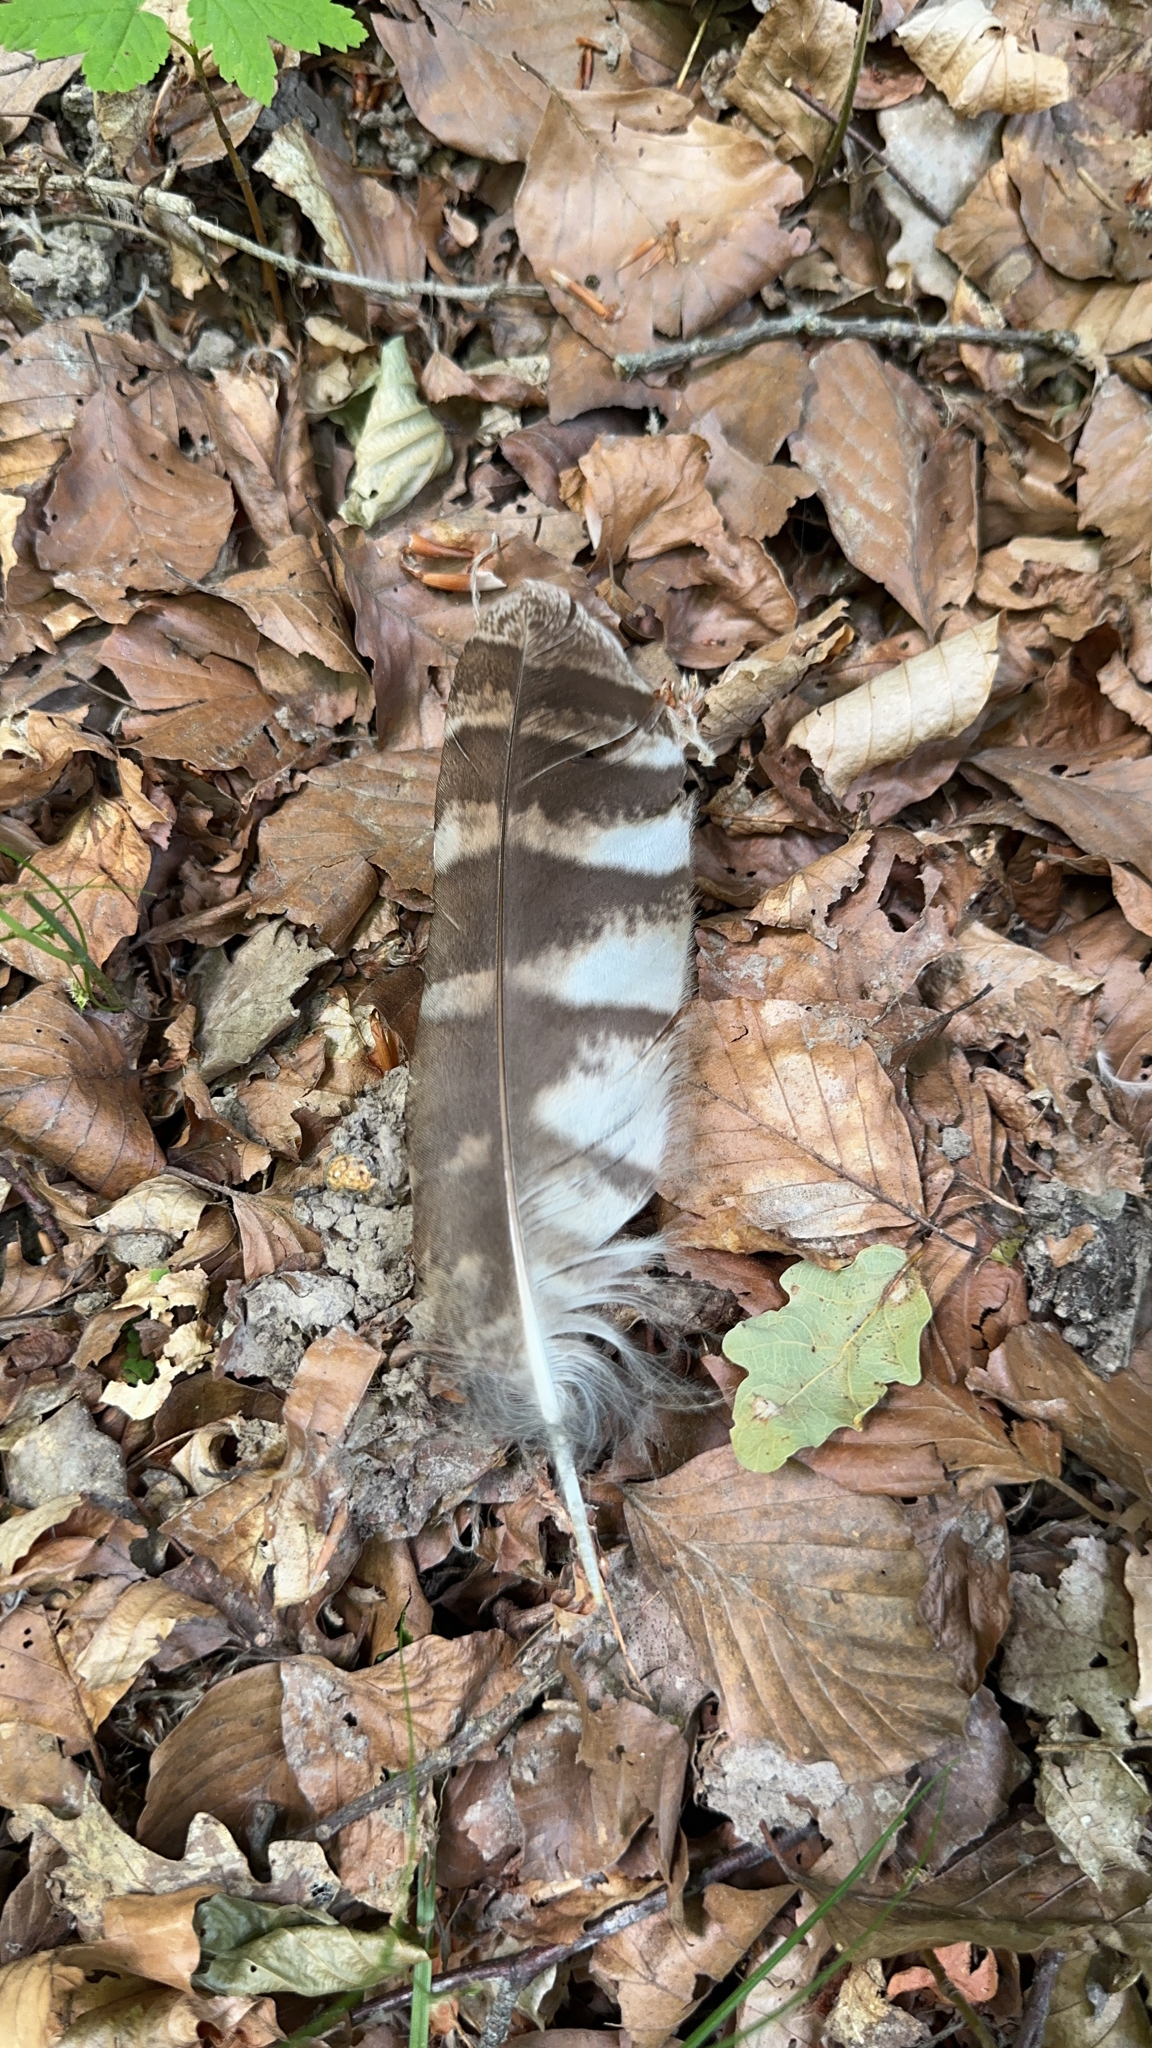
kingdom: Animalia
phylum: Chordata
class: Aves
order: Strigiformes
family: Strigidae
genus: Strix
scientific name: Strix aluco
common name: Tawny owl
